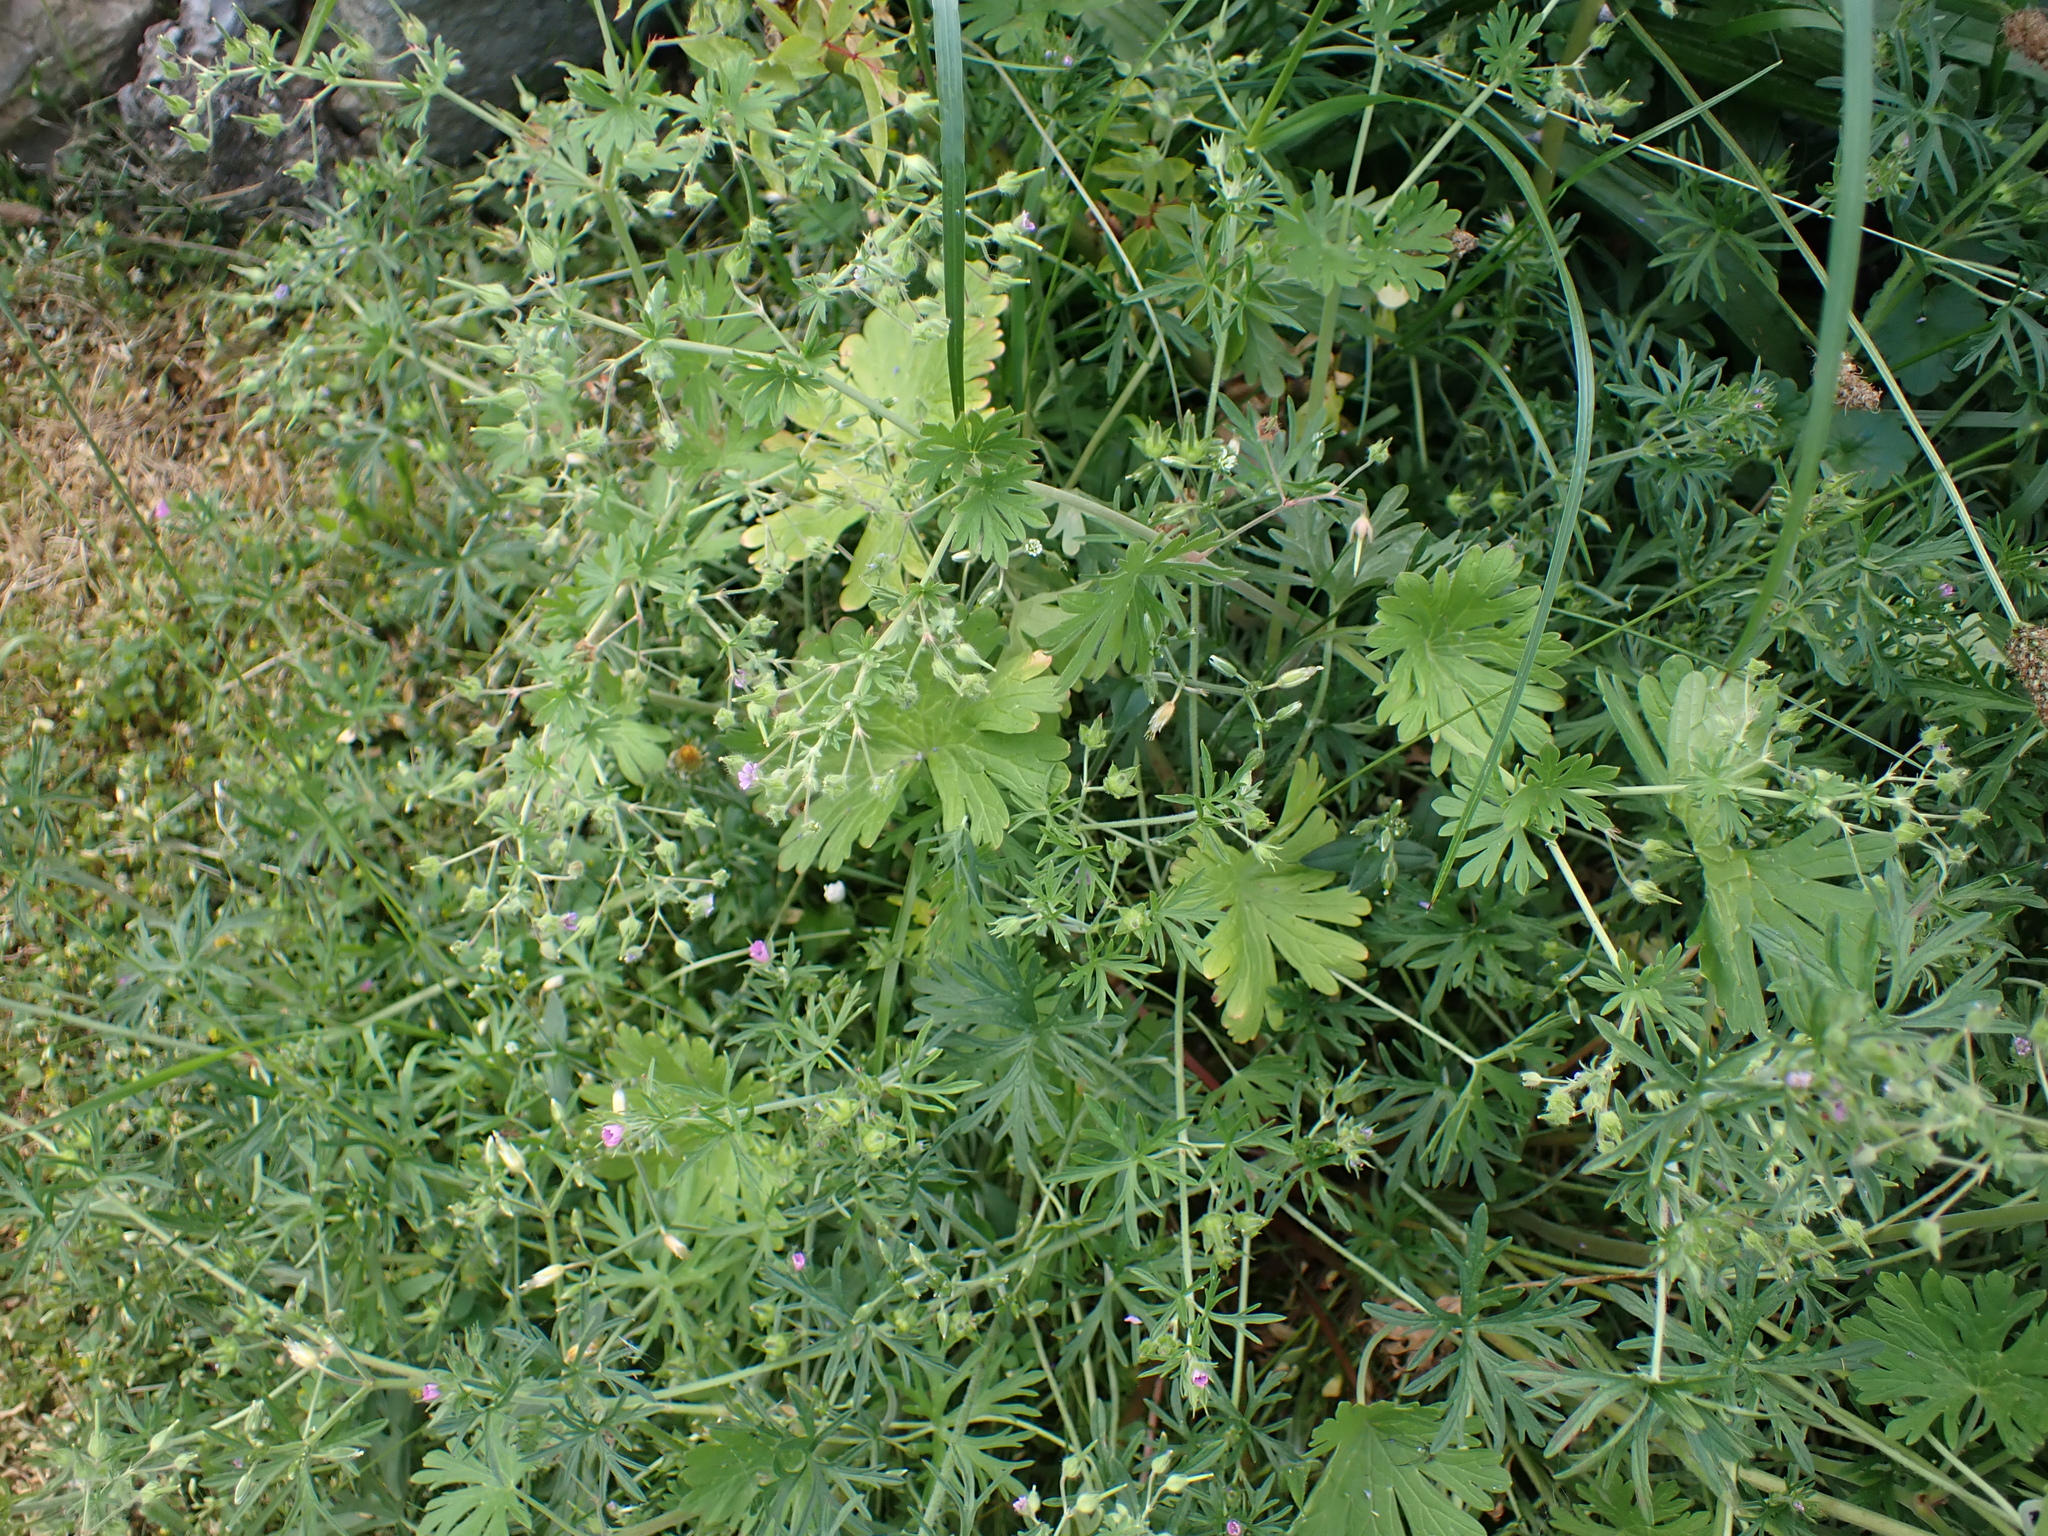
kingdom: Plantae
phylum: Tracheophyta
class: Magnoliopsida
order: Geraniales
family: Geraniaceae
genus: Geranium
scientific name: Geranium dissectum
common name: Cut-leaved crane's-bill
